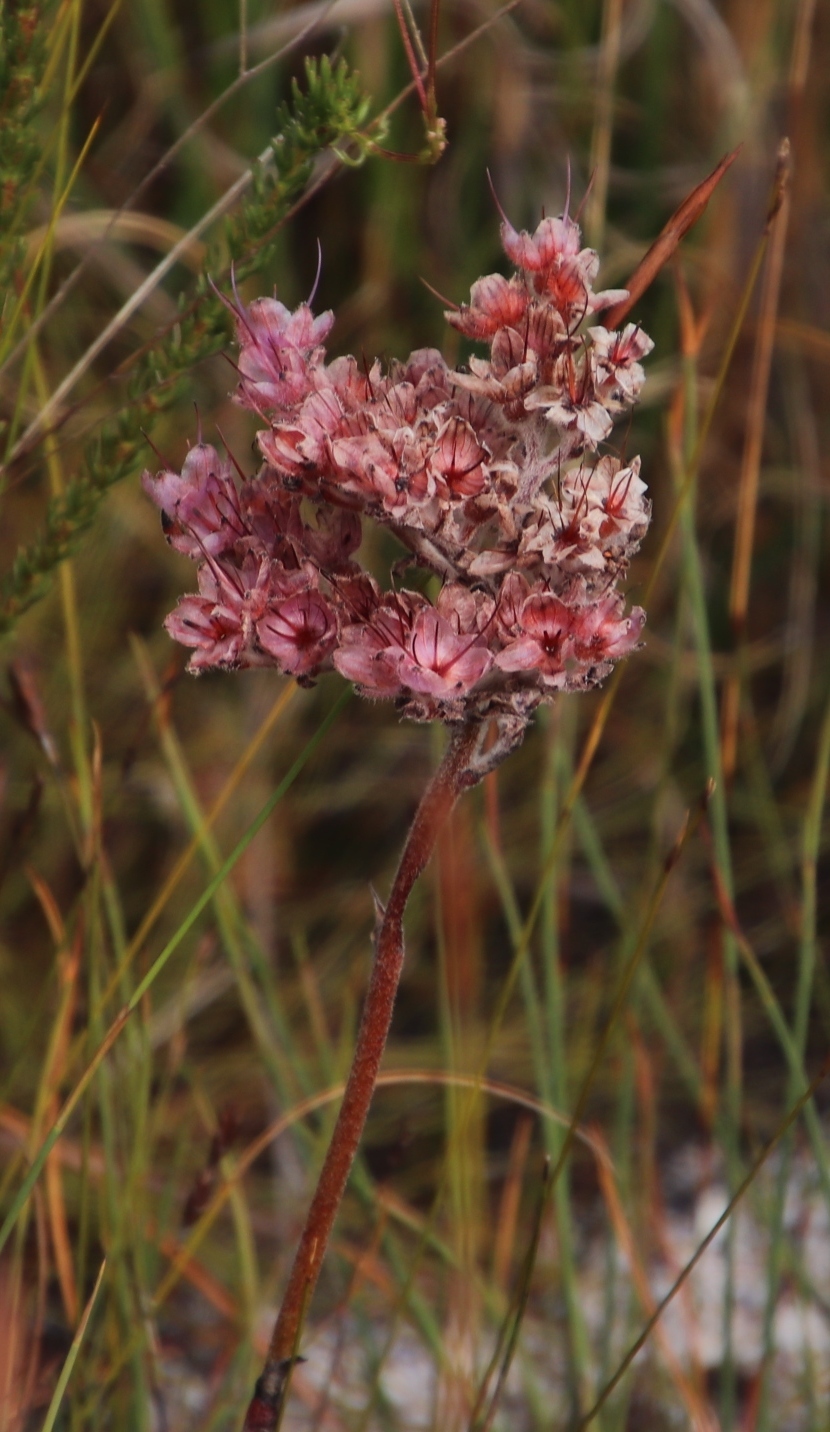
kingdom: Plantae
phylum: Tracheophyta
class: Liliopsida
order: Commelinales
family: Haemodoraceae
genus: Dilatris
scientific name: Dilatris ixioides
